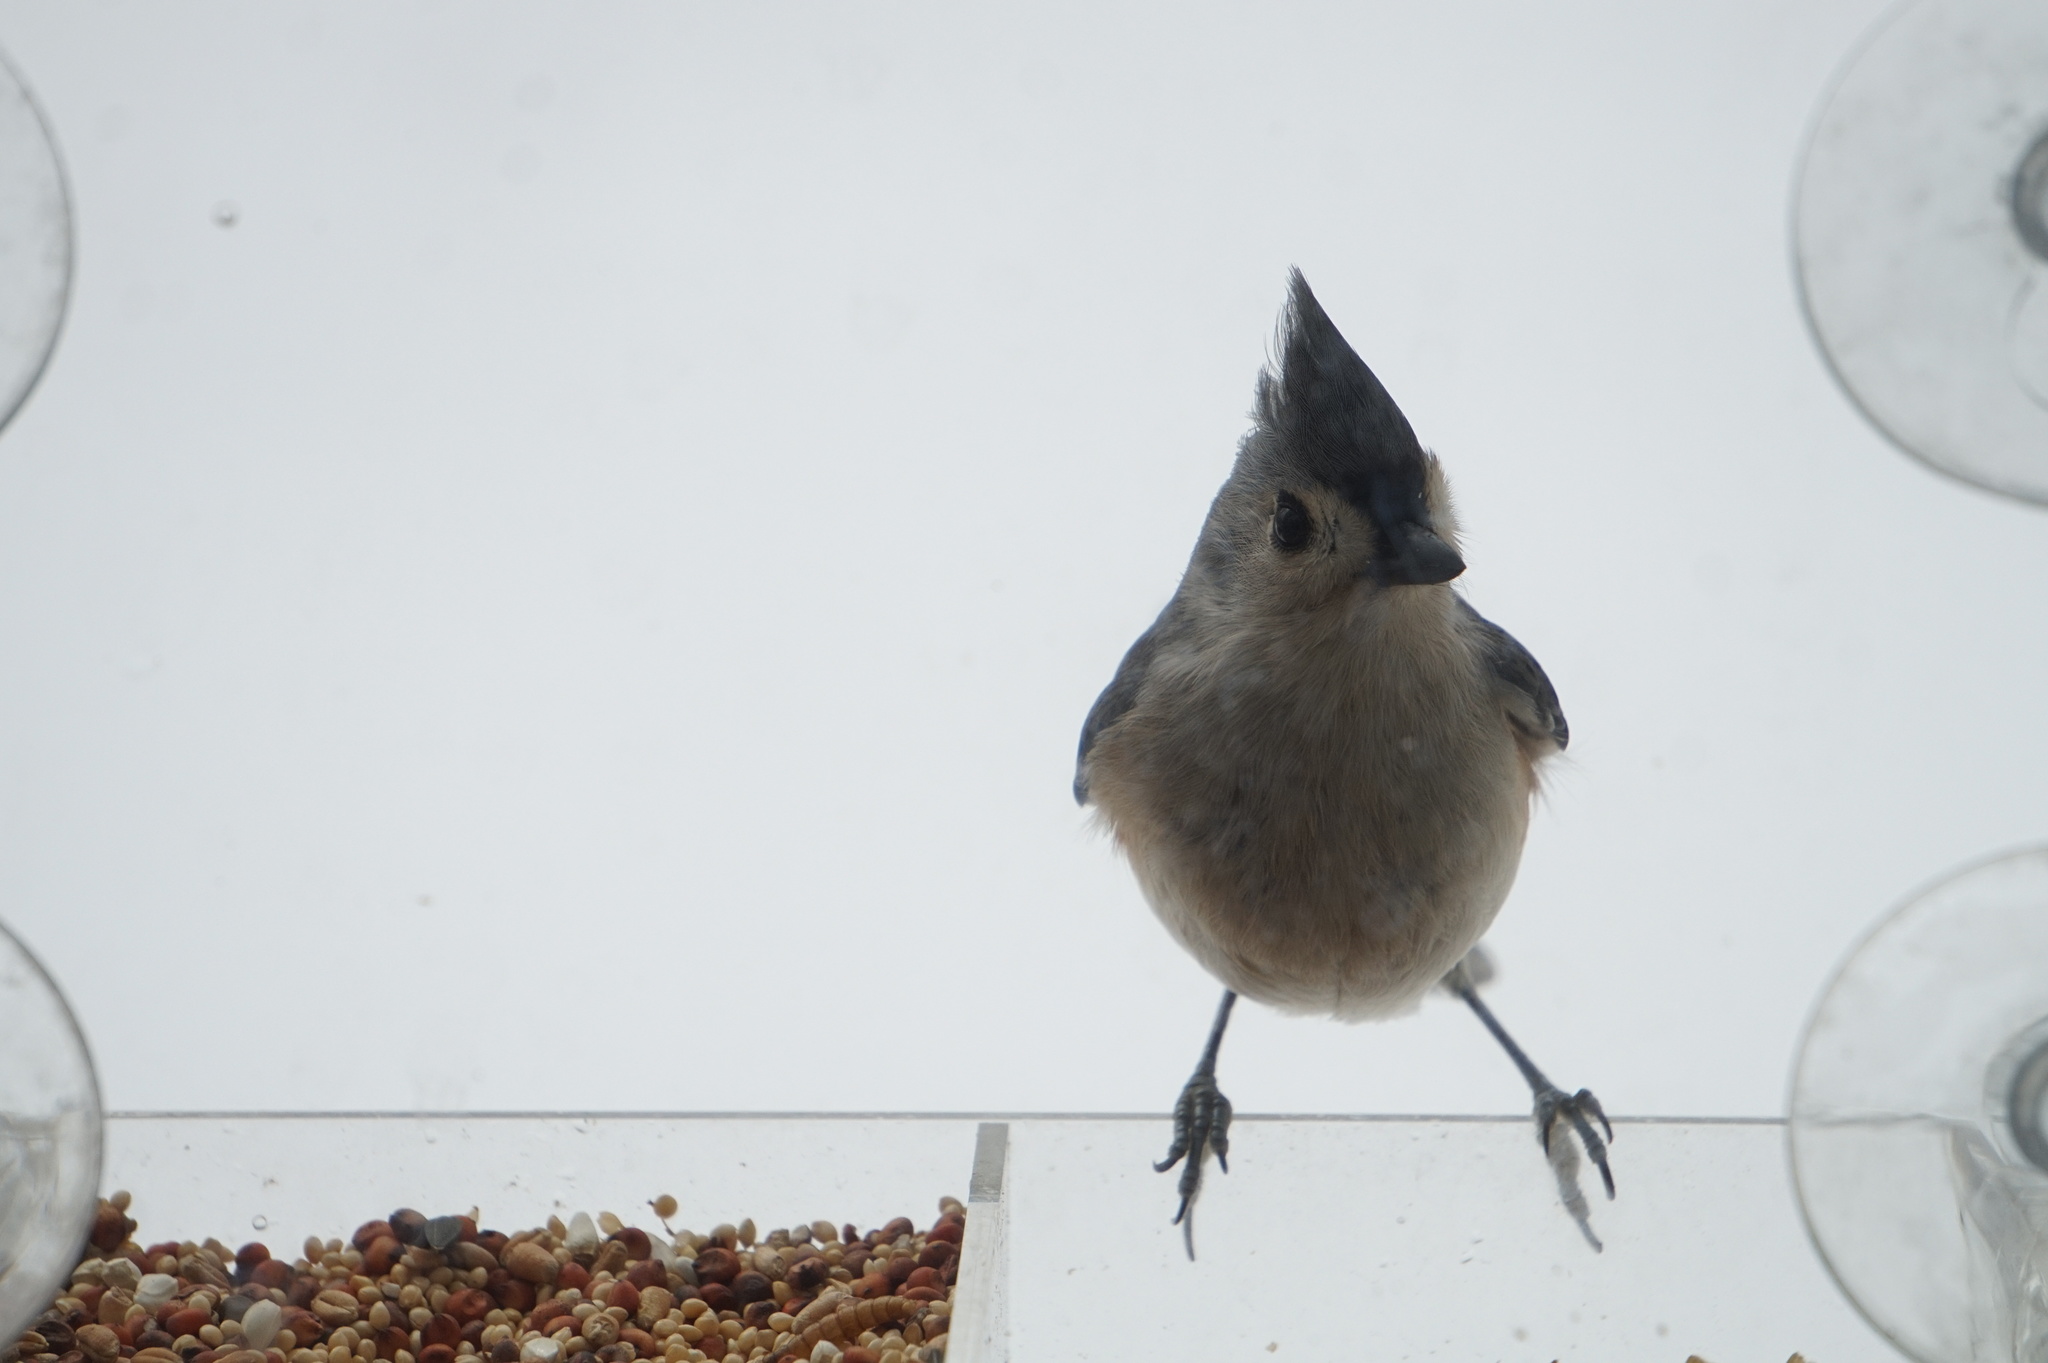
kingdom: Animalia
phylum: Chordata
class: Aves
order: Passeriformes
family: Paridae
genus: Baeolophus
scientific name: Baeolophus bicolor
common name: Tufted titmouse
